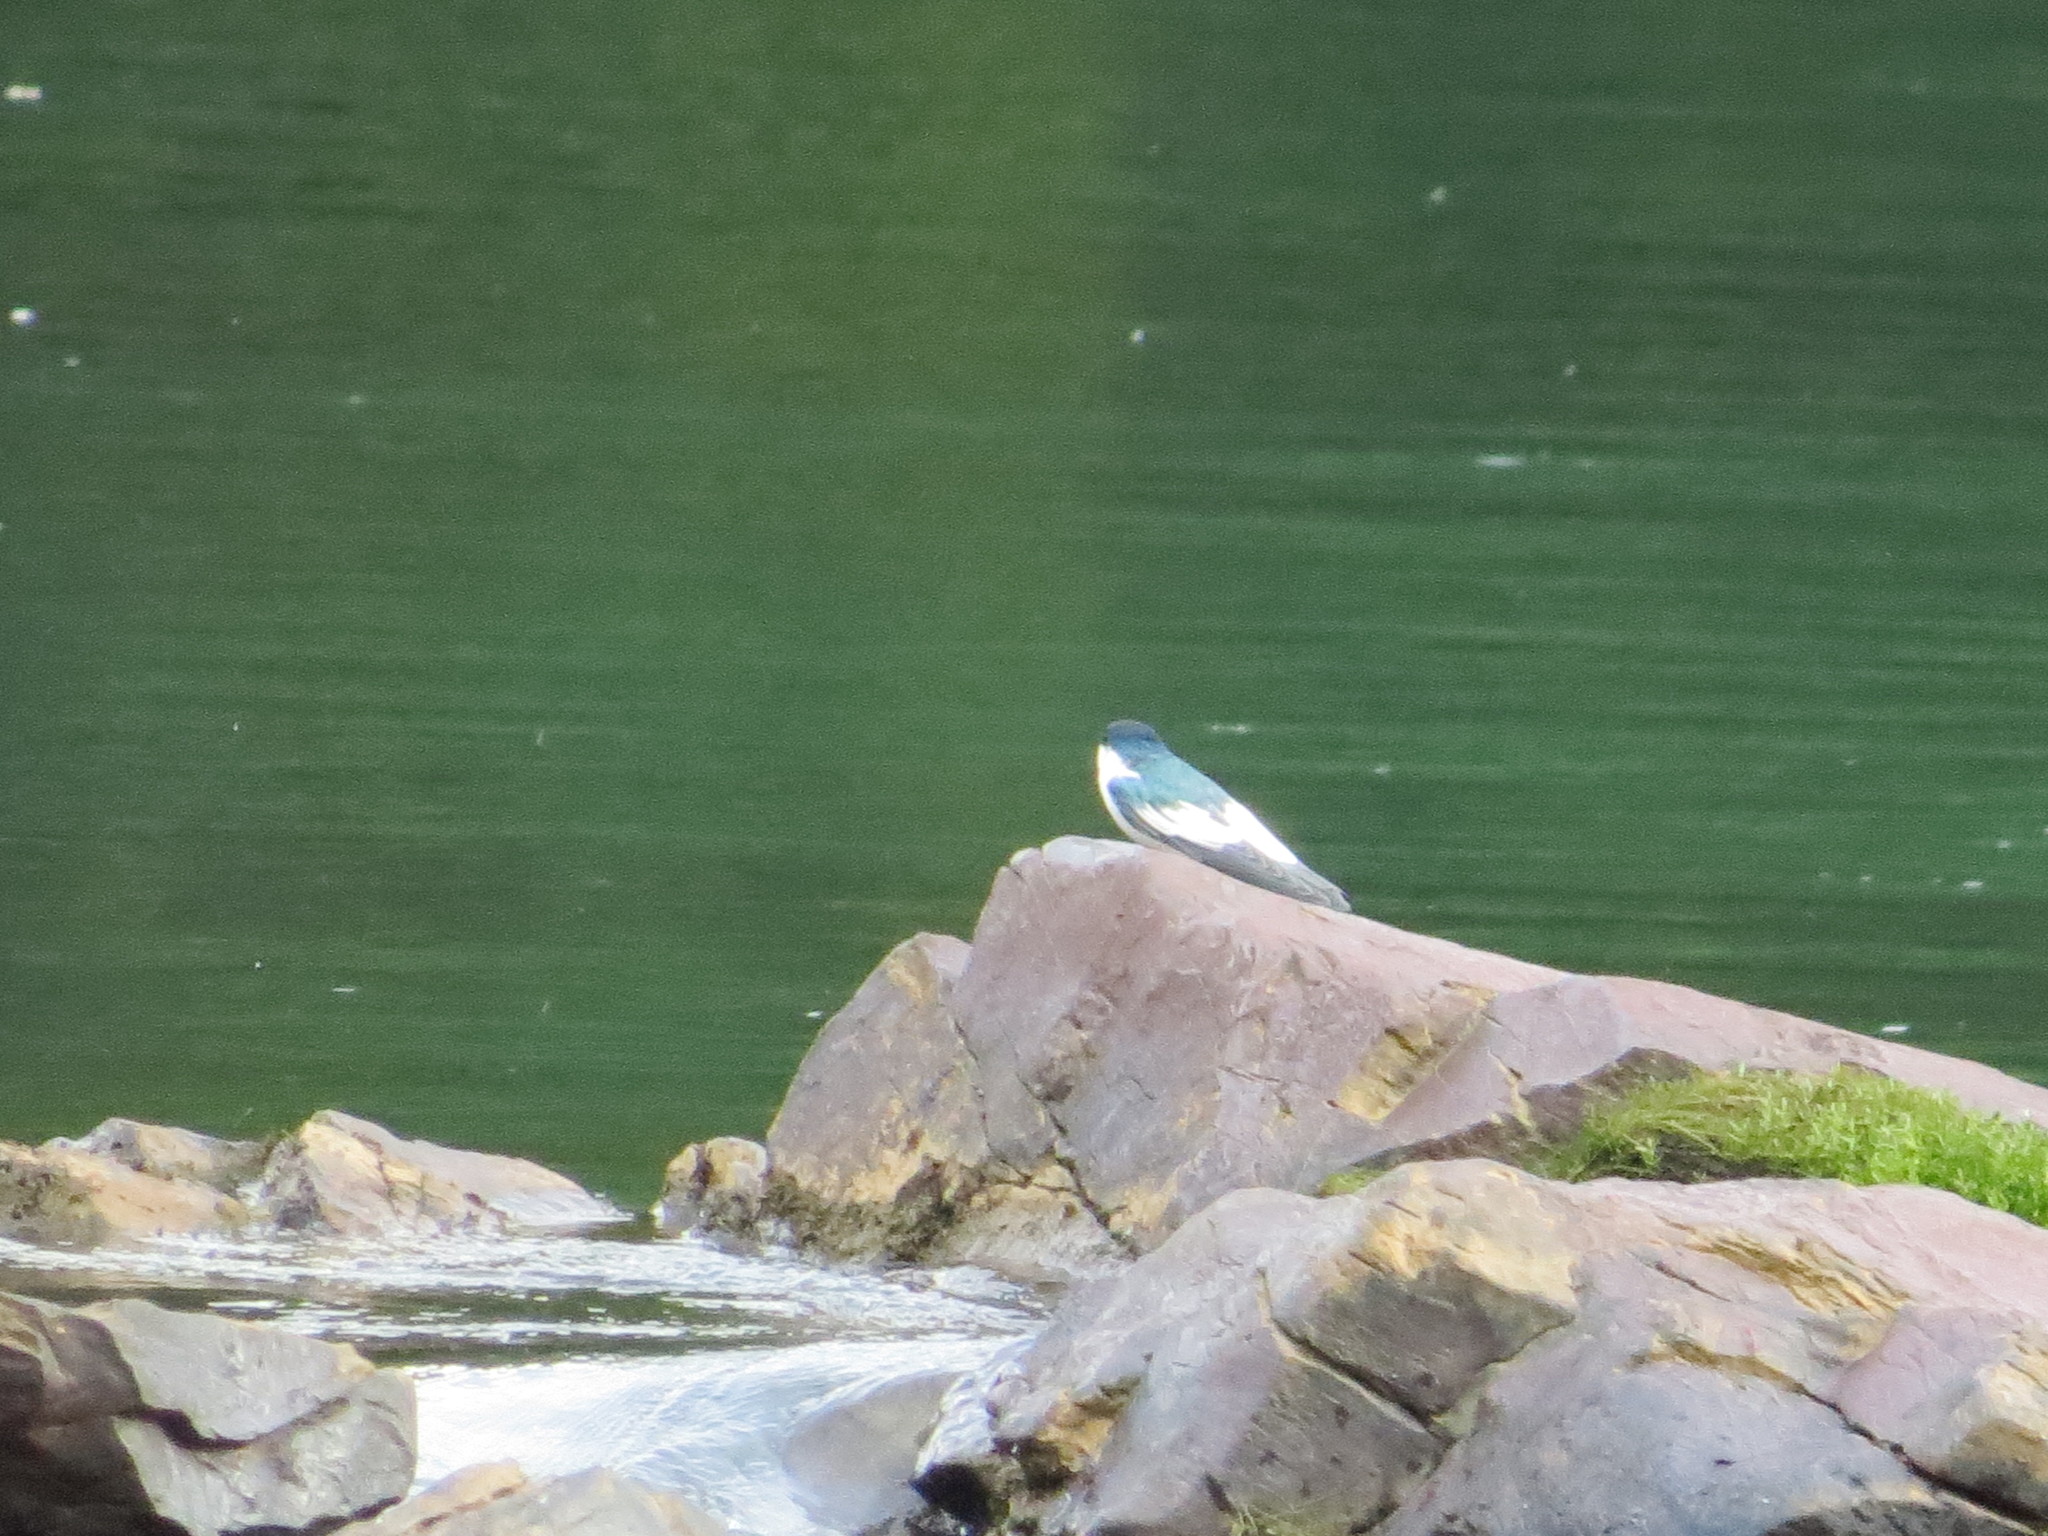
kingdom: Animalia
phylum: Chordata
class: Aves
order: Passeriformes
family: Hirundinidae
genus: Tachycineta
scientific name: Tachycineta albiventer
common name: White-winged swallow
